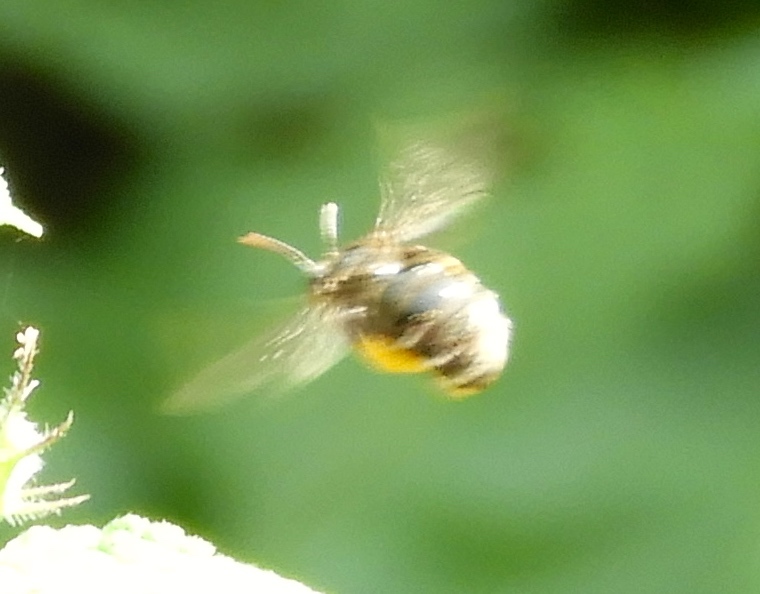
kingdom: Animalia
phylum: Arthropoda
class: Insecta
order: Hymenoptera
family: Apidae
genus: Exomalopsis
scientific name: Exomalopsis
